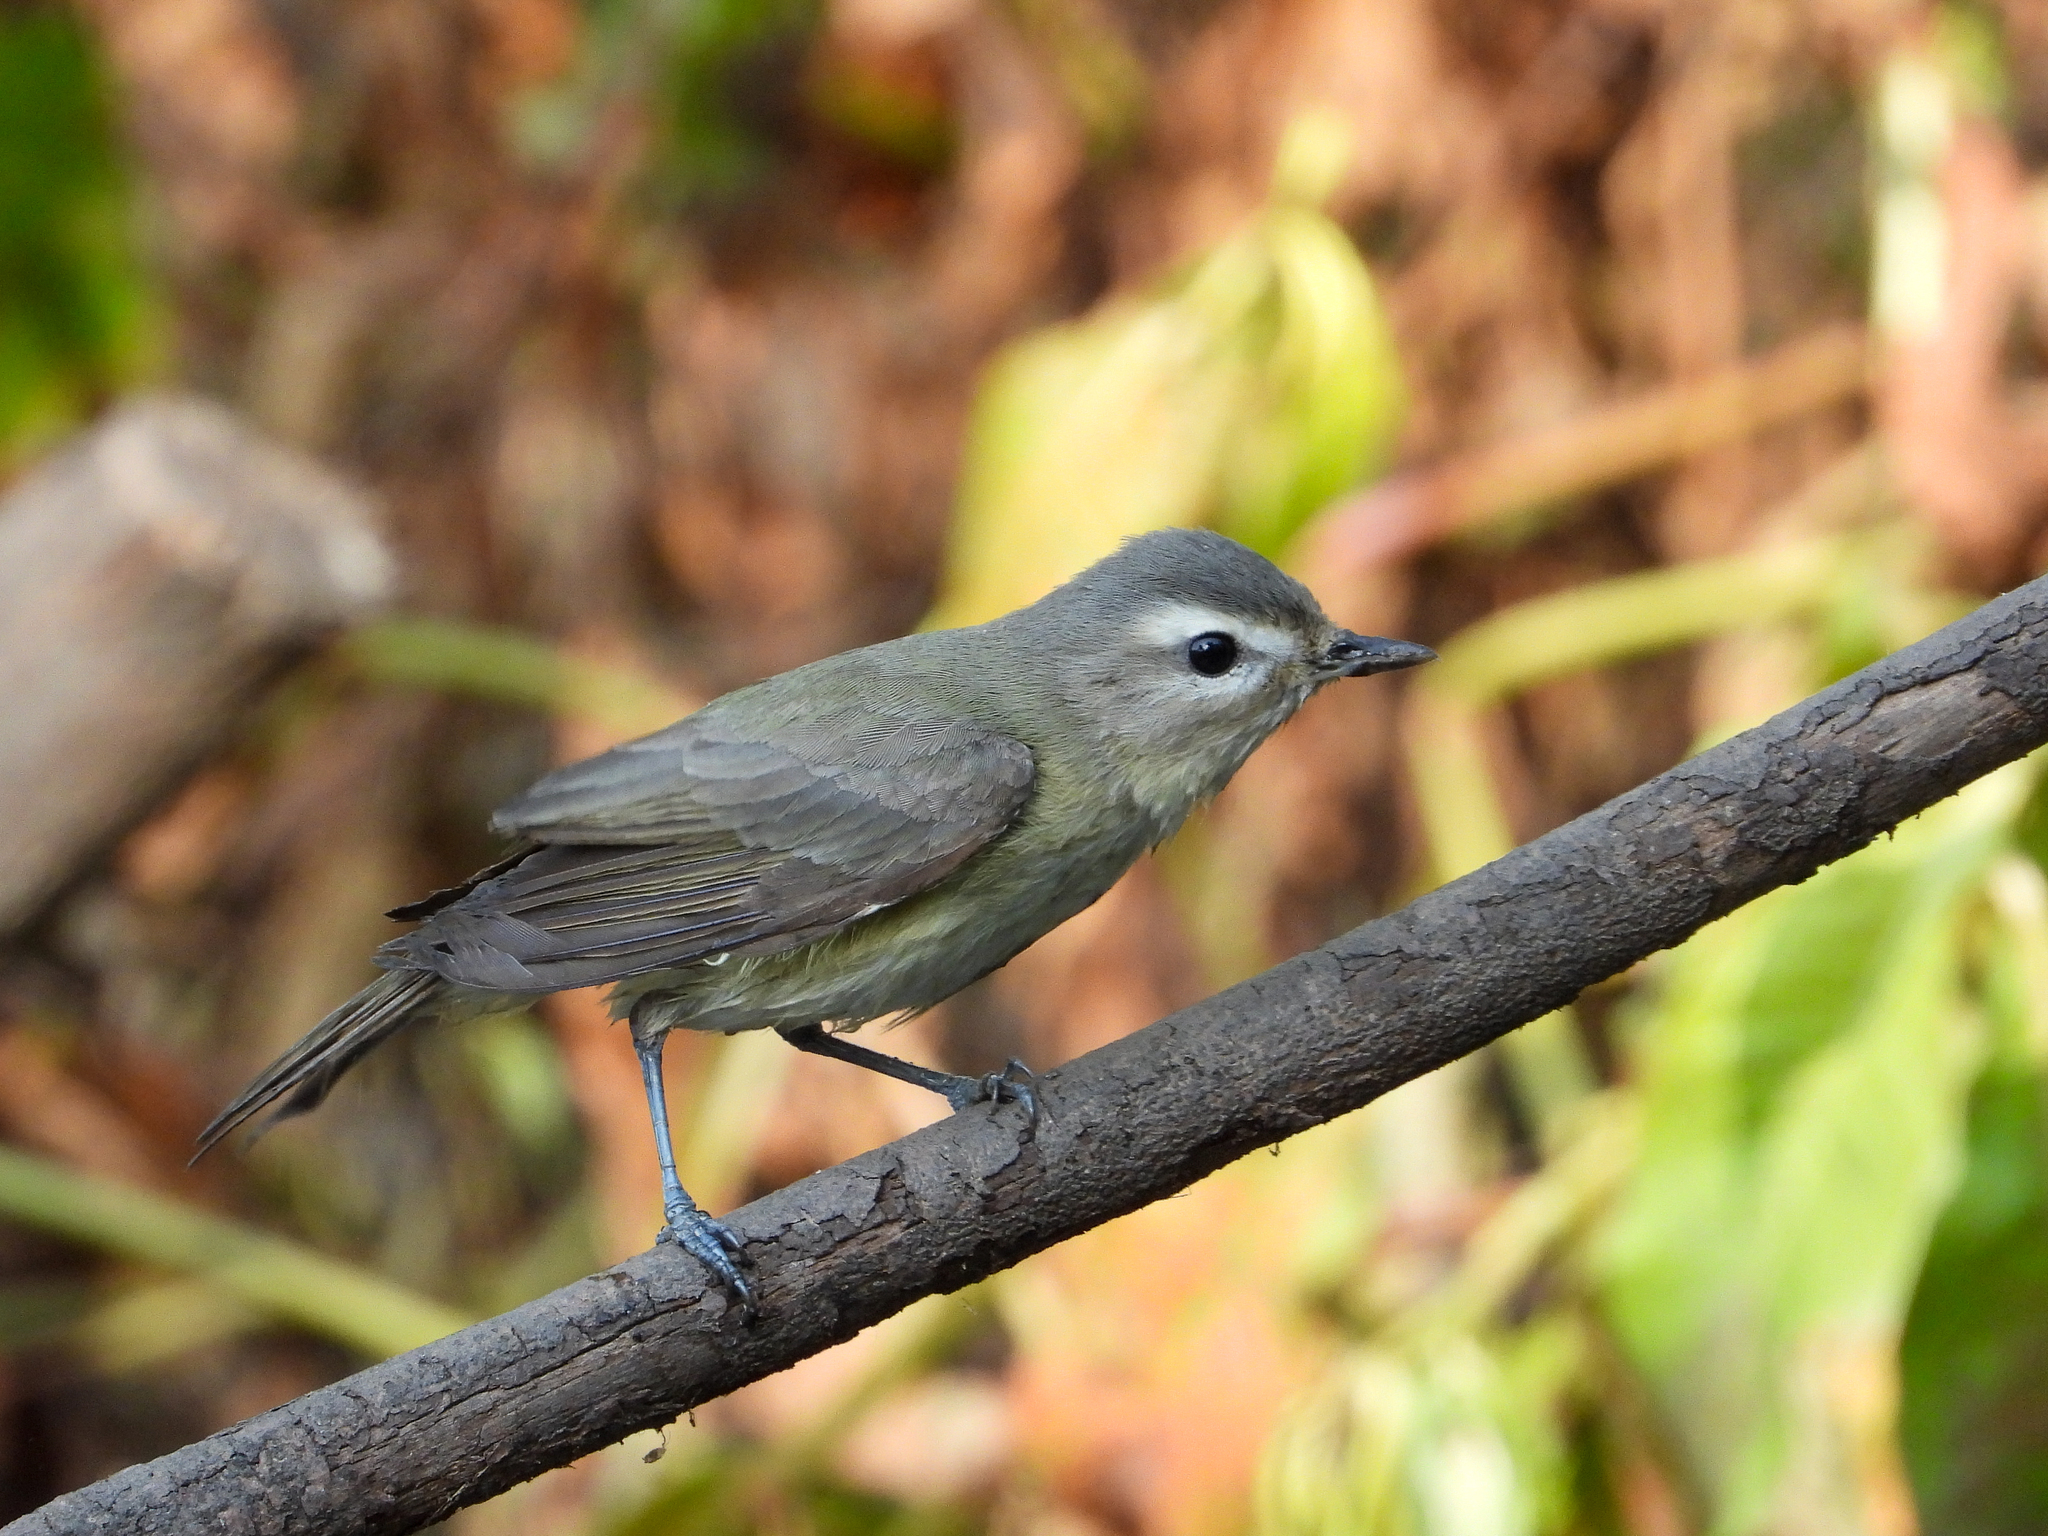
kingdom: Animalia
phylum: Chordata
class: Aves
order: Passeriformes
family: Vireonidae
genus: Vireo
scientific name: Vireo gilvus
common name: Warbling vireo
